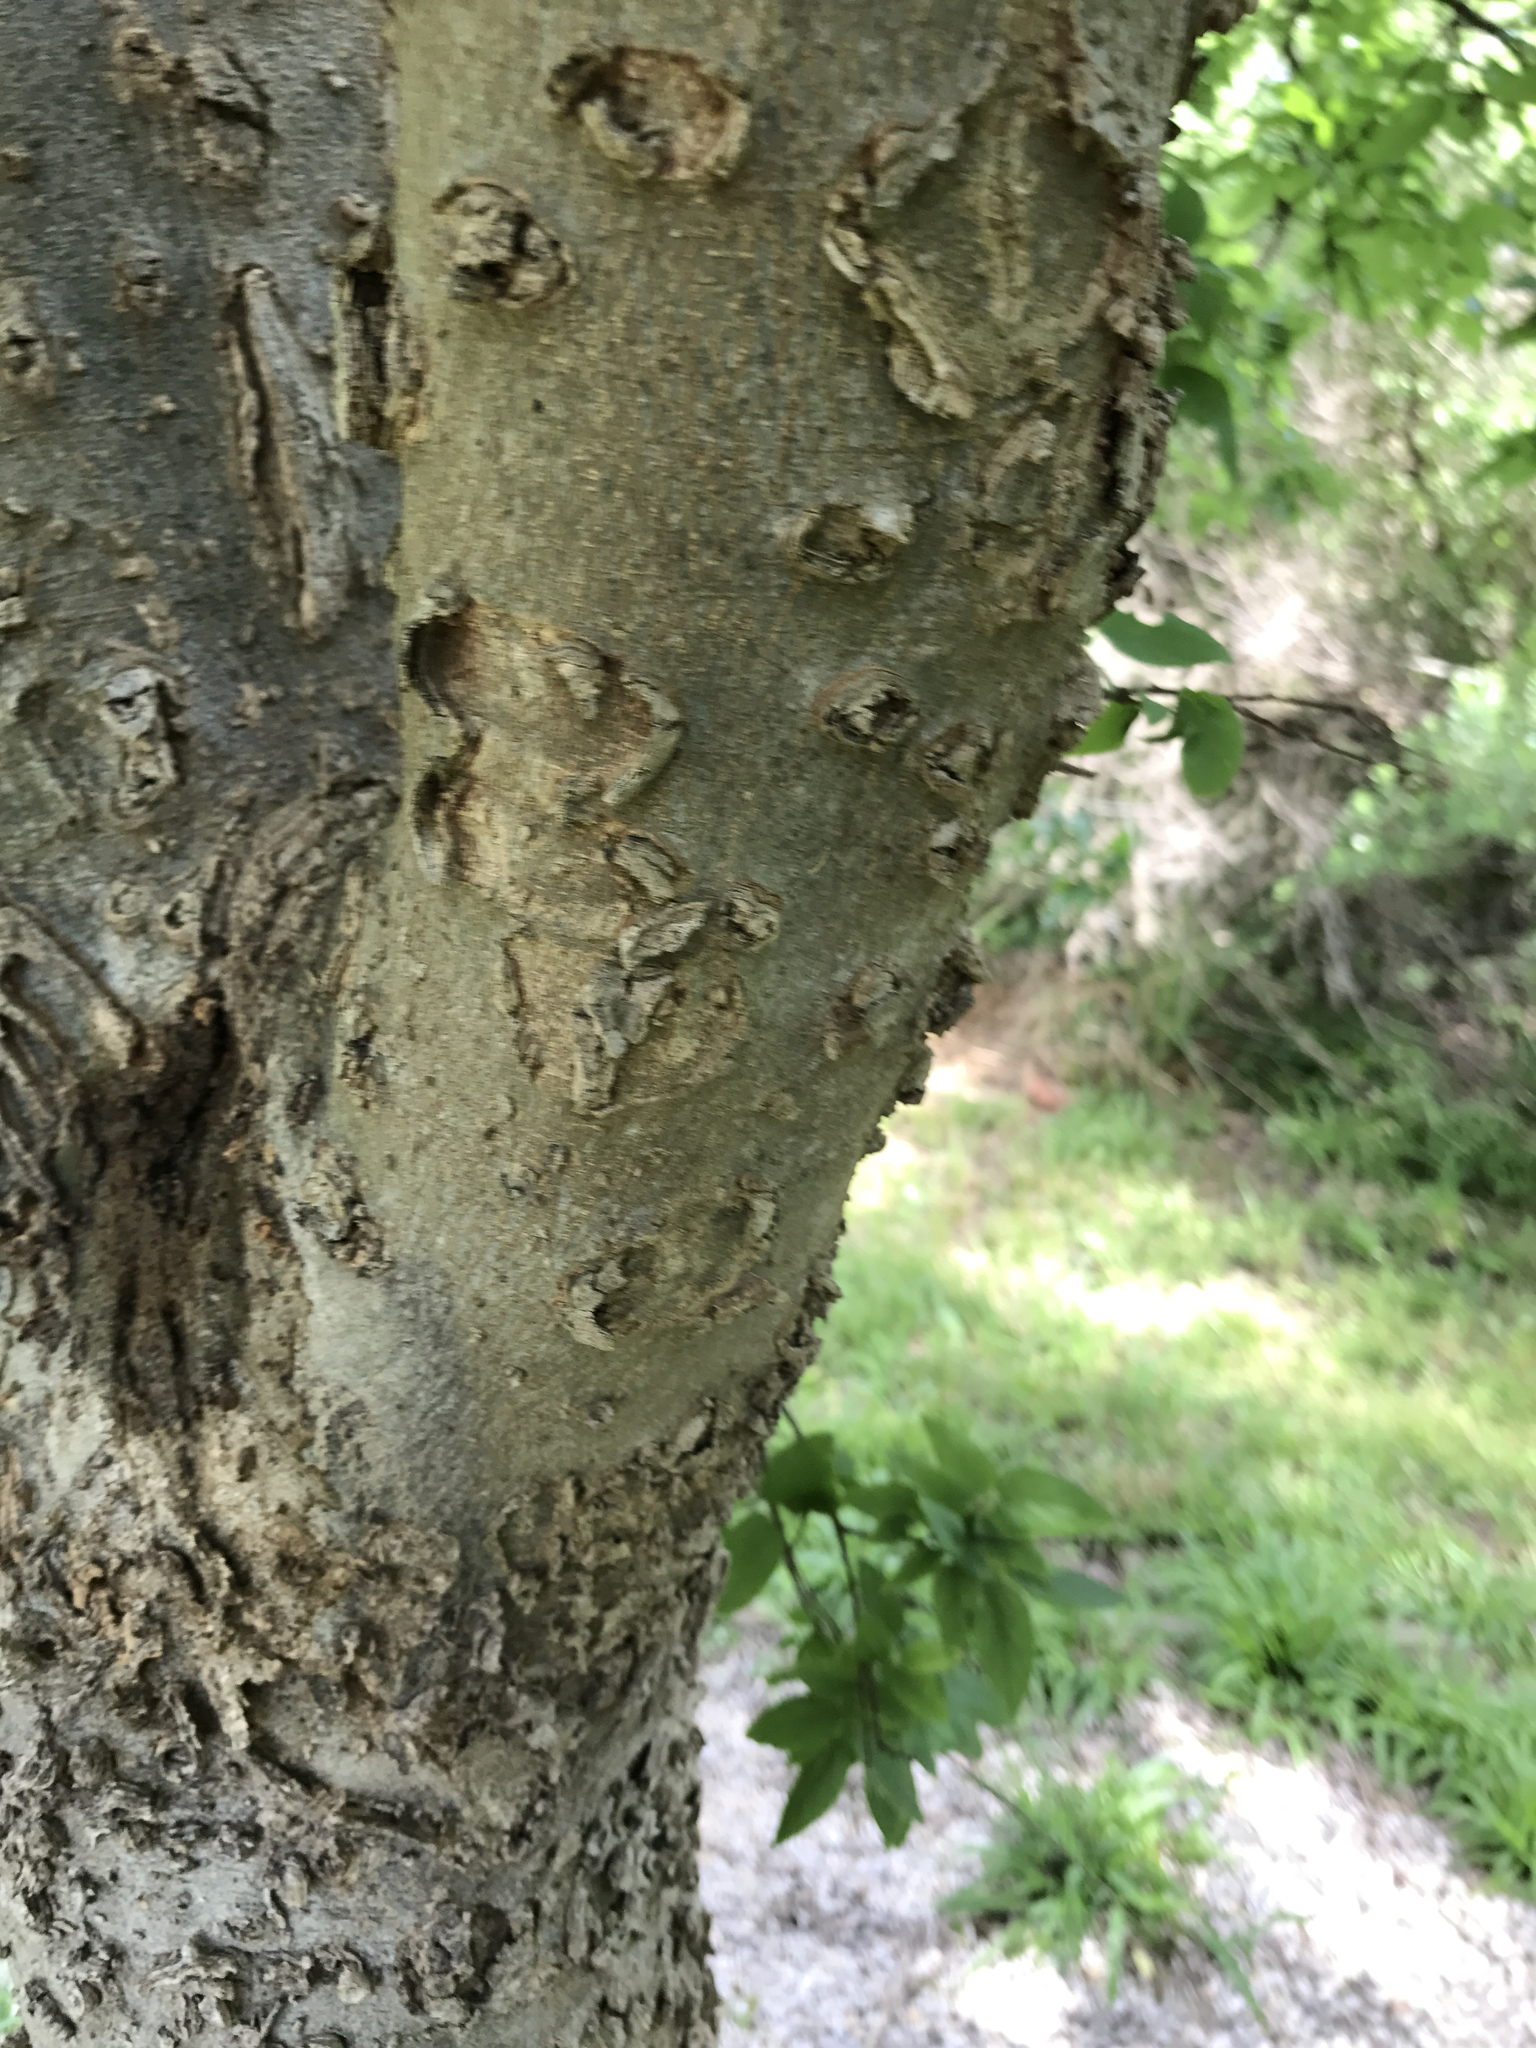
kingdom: Plantae
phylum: Tracheophyta
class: Magnoliopsida
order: Rosales
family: Cannabaceae
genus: Celtis
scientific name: Celtis laevigata
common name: Sugarberry
